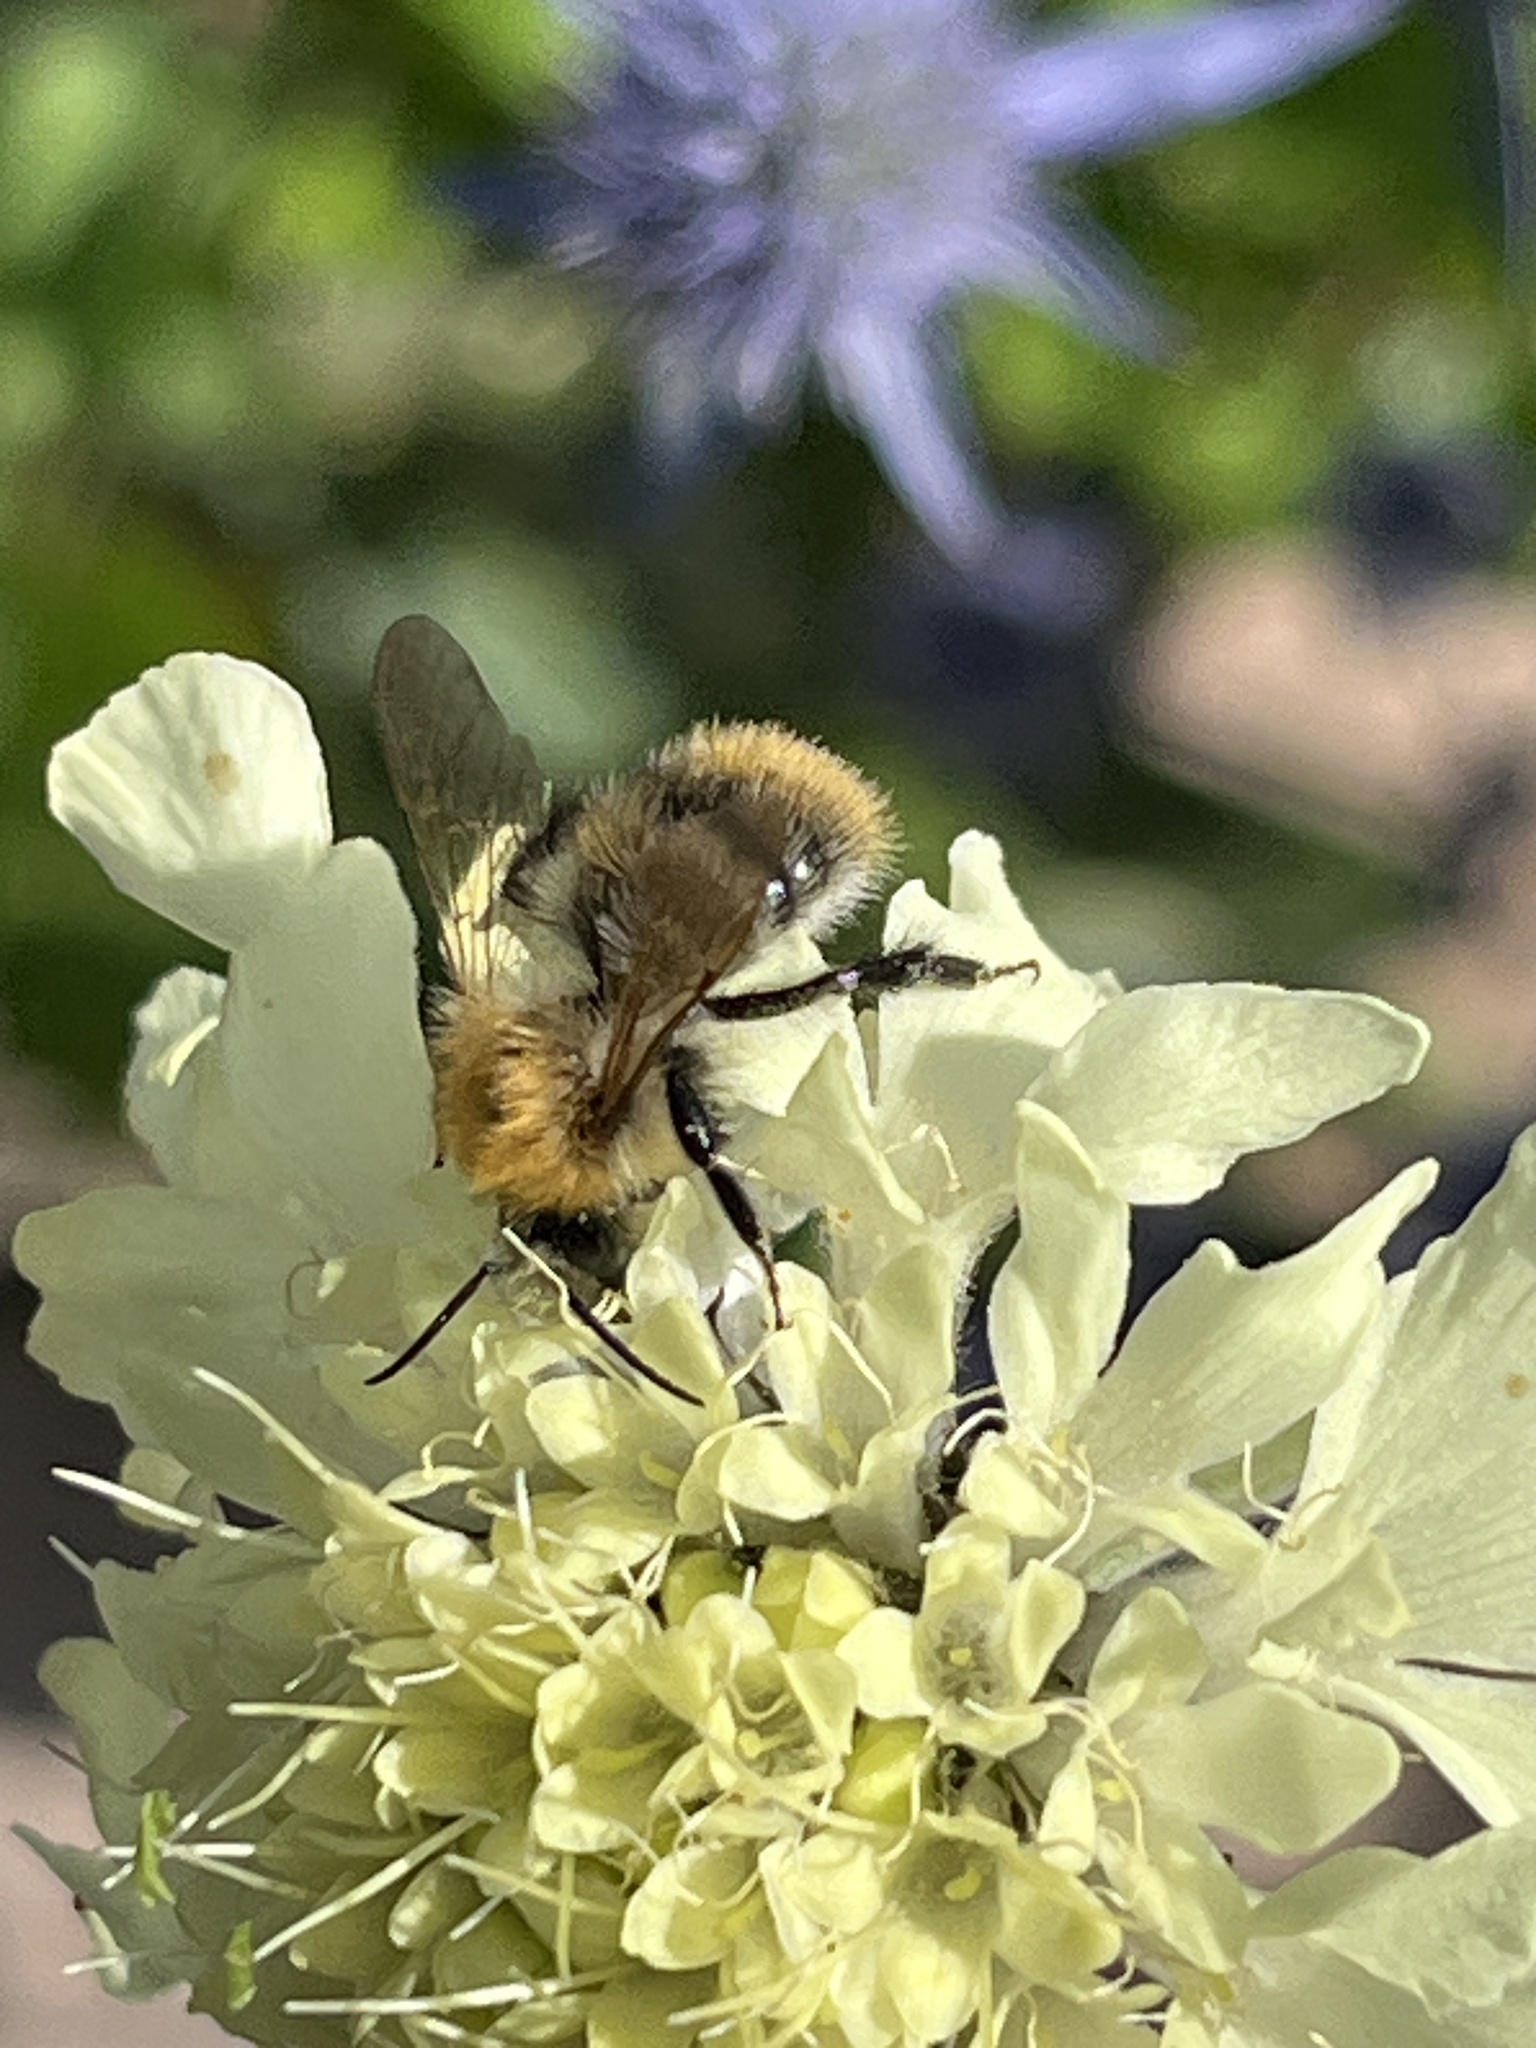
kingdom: Animalia
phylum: Arthropoda
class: Insecta
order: Hymenoptera
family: Apidae
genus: Bombus
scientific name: Bombus pascuorum
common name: Common carder bee
